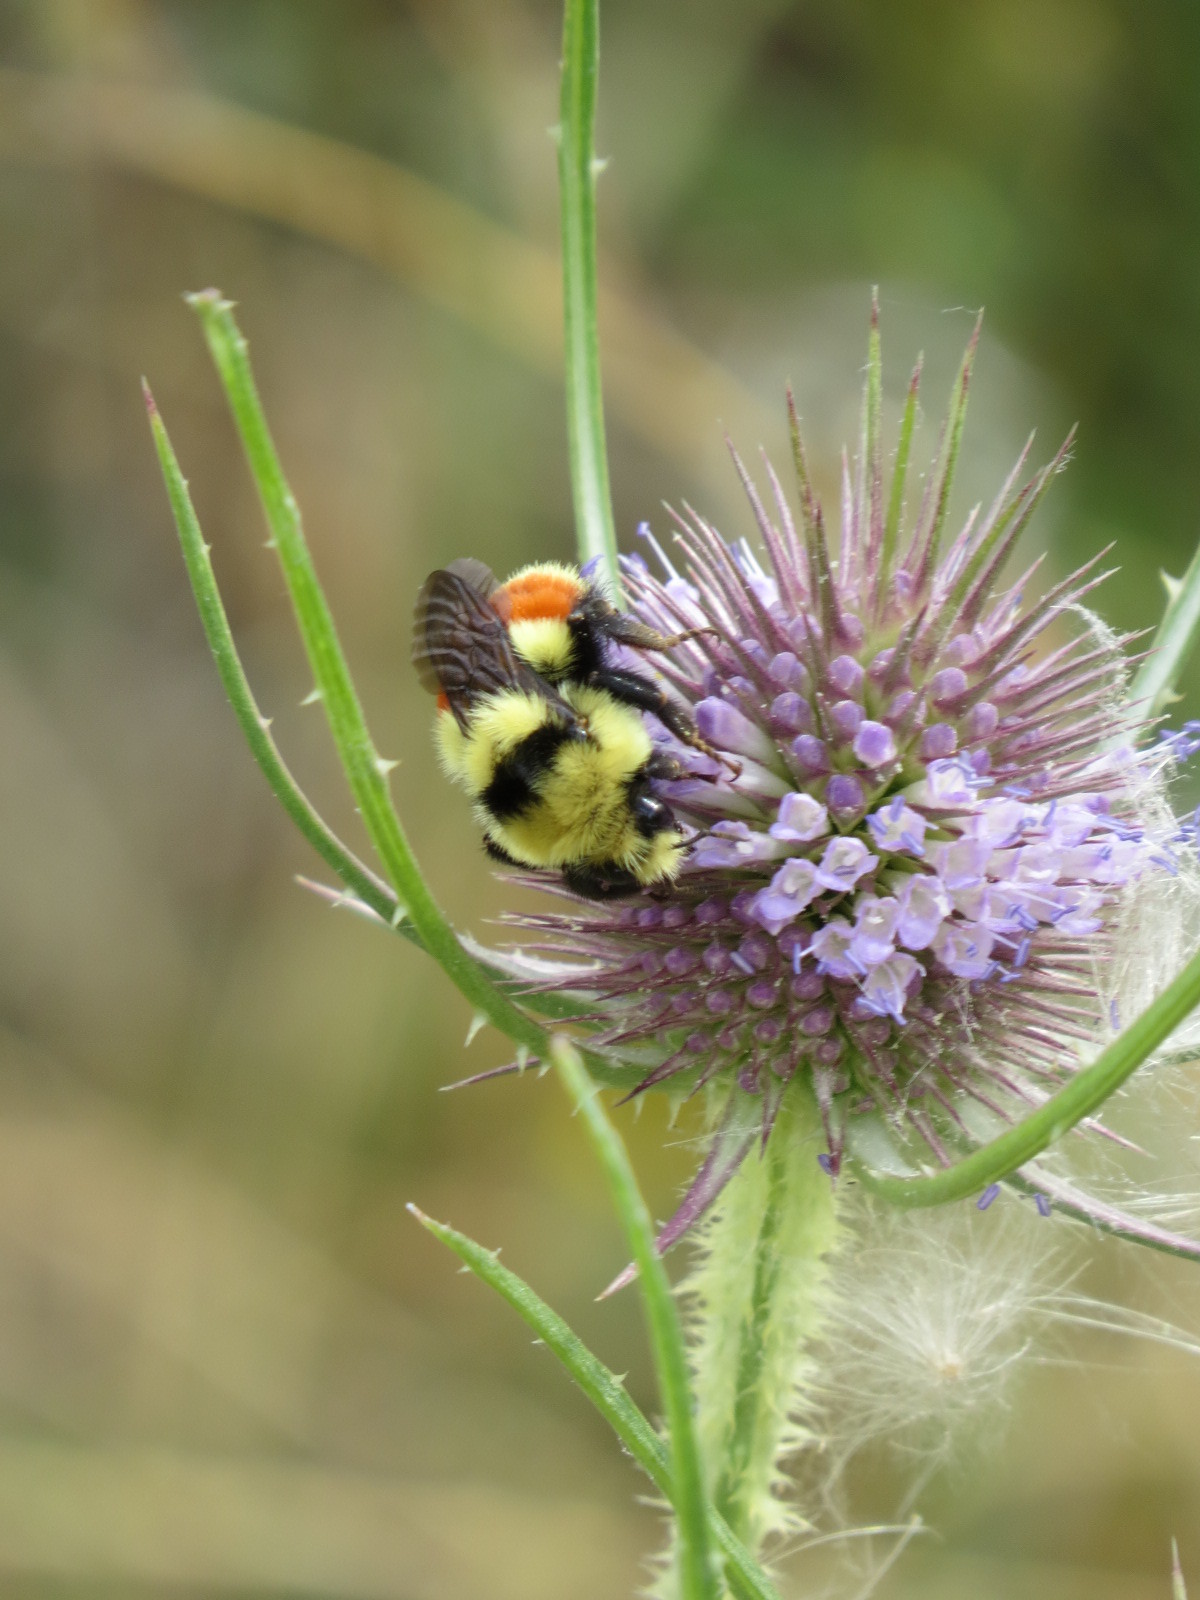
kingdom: Animalia
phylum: Arthropoda
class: Insecta
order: Hymenoptera
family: Apidae
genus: Bombus
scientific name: Bombus huntii
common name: Hunt bumble bee
